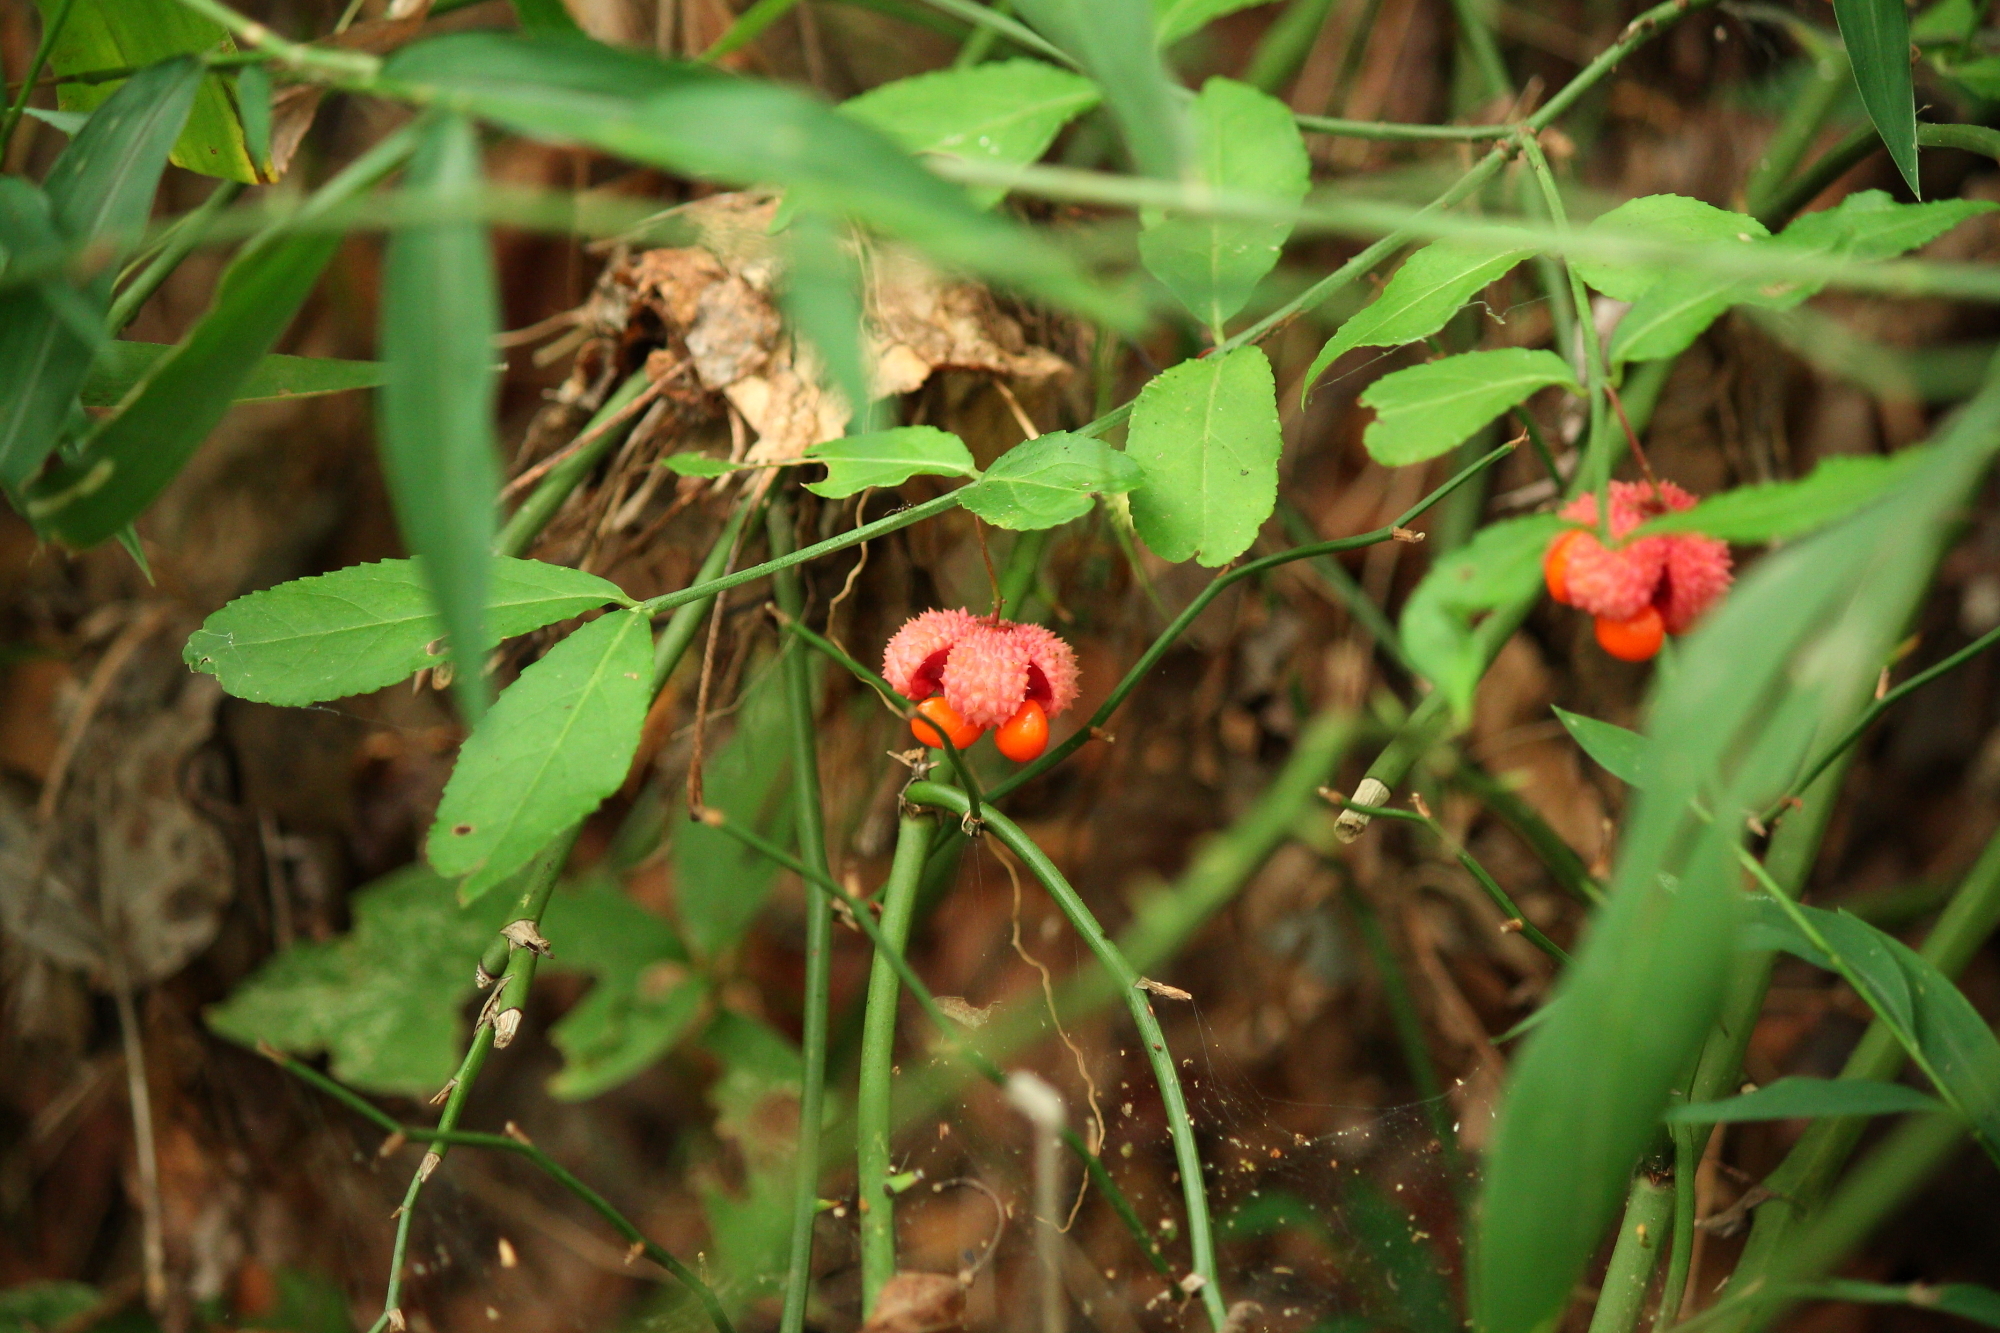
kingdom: Plantae
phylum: Tracheophyta
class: Magnoliopsida
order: Celastrales
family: Celastraceae
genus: Euonymus
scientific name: Euonymus americanus
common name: Bursting-heart
